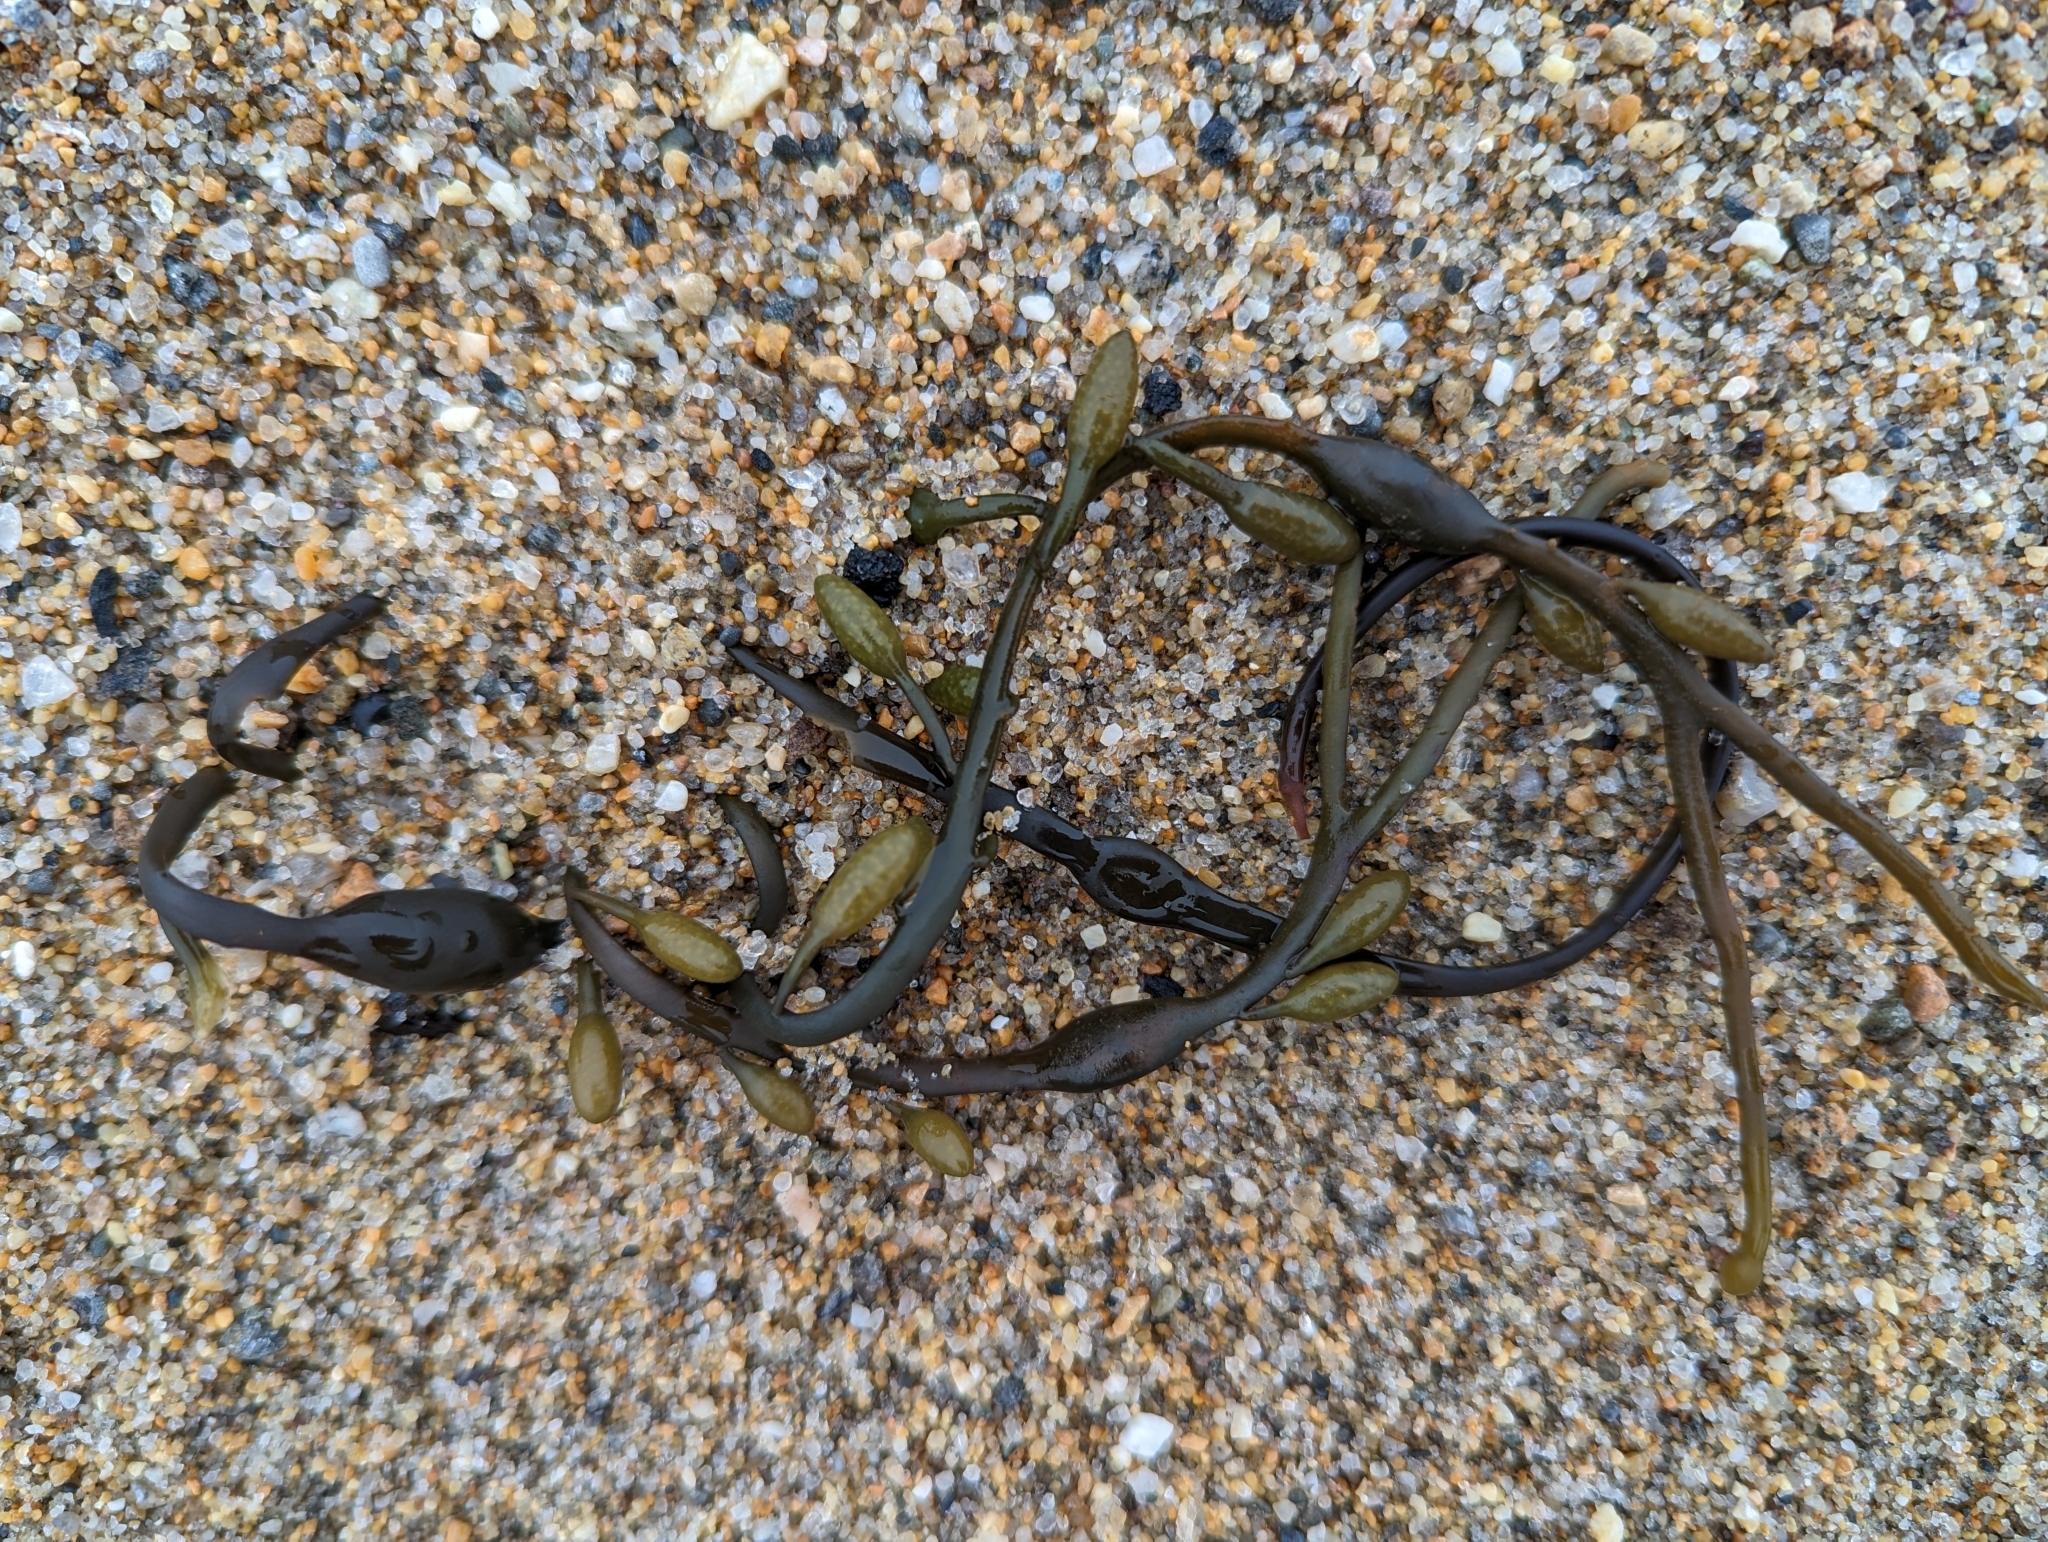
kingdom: Chromista
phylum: Ochrophyta
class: Phaeophyceae
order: Fucales
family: Fucaceae
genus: Ascophyllum
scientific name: Ascophyllum nodosum
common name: Knotted wrack
